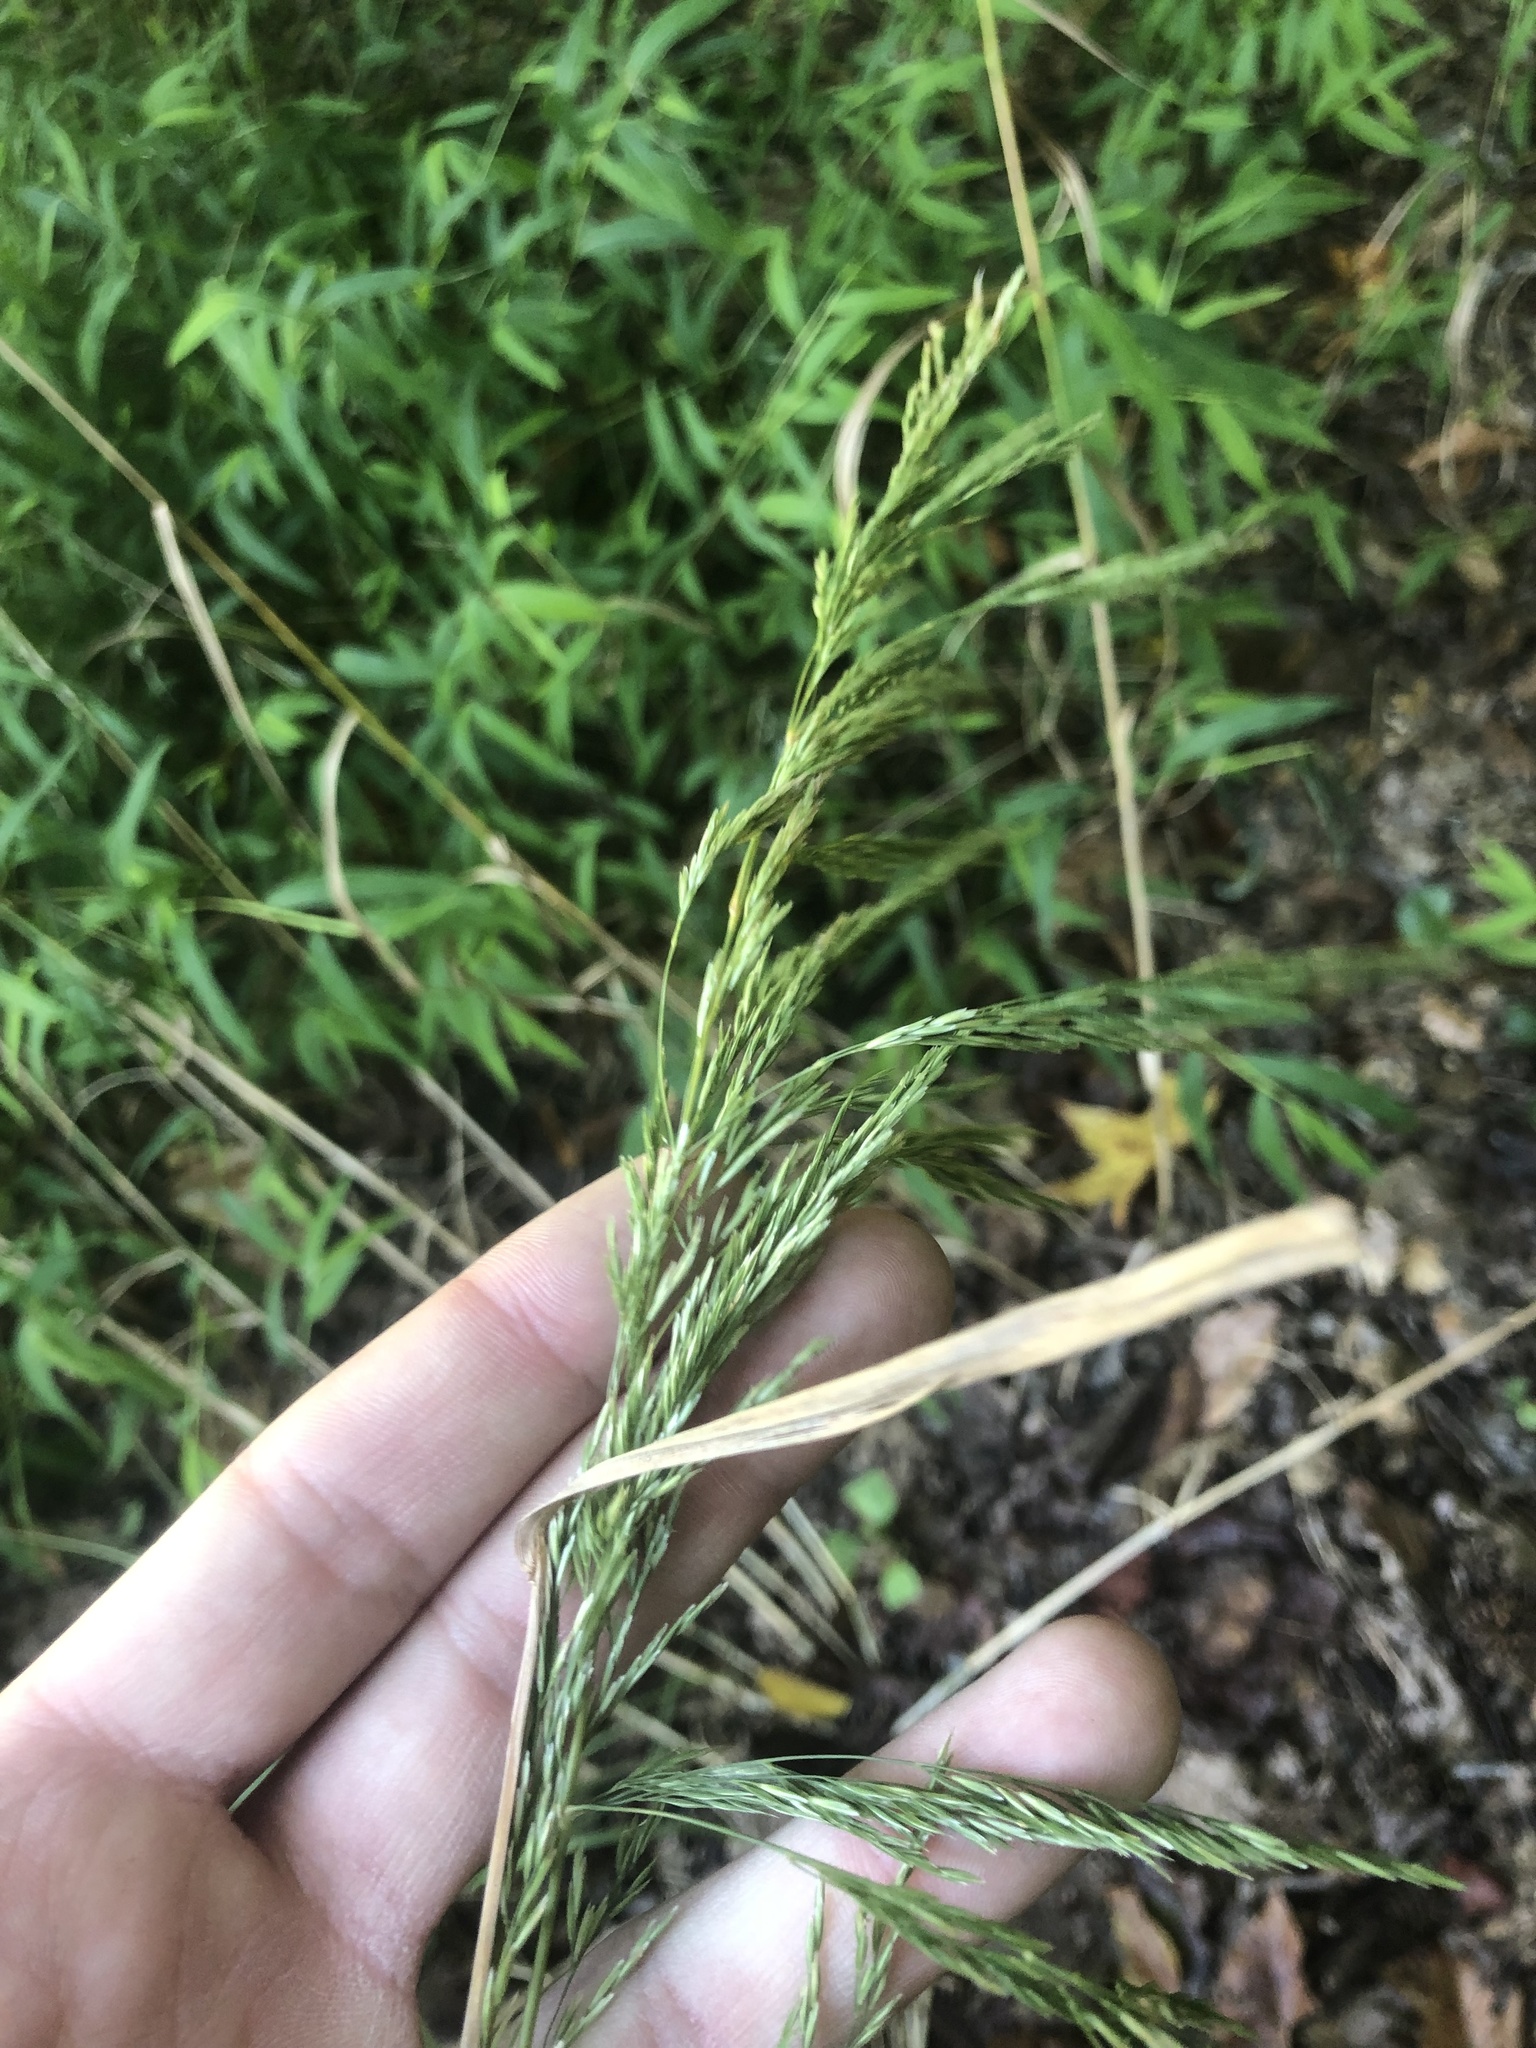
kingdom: Plantae
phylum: Tracheophyta
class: Liliopsida
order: Poales
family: Poaceae
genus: Cinna
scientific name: Cinna arundinacea
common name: Stout woodreed
